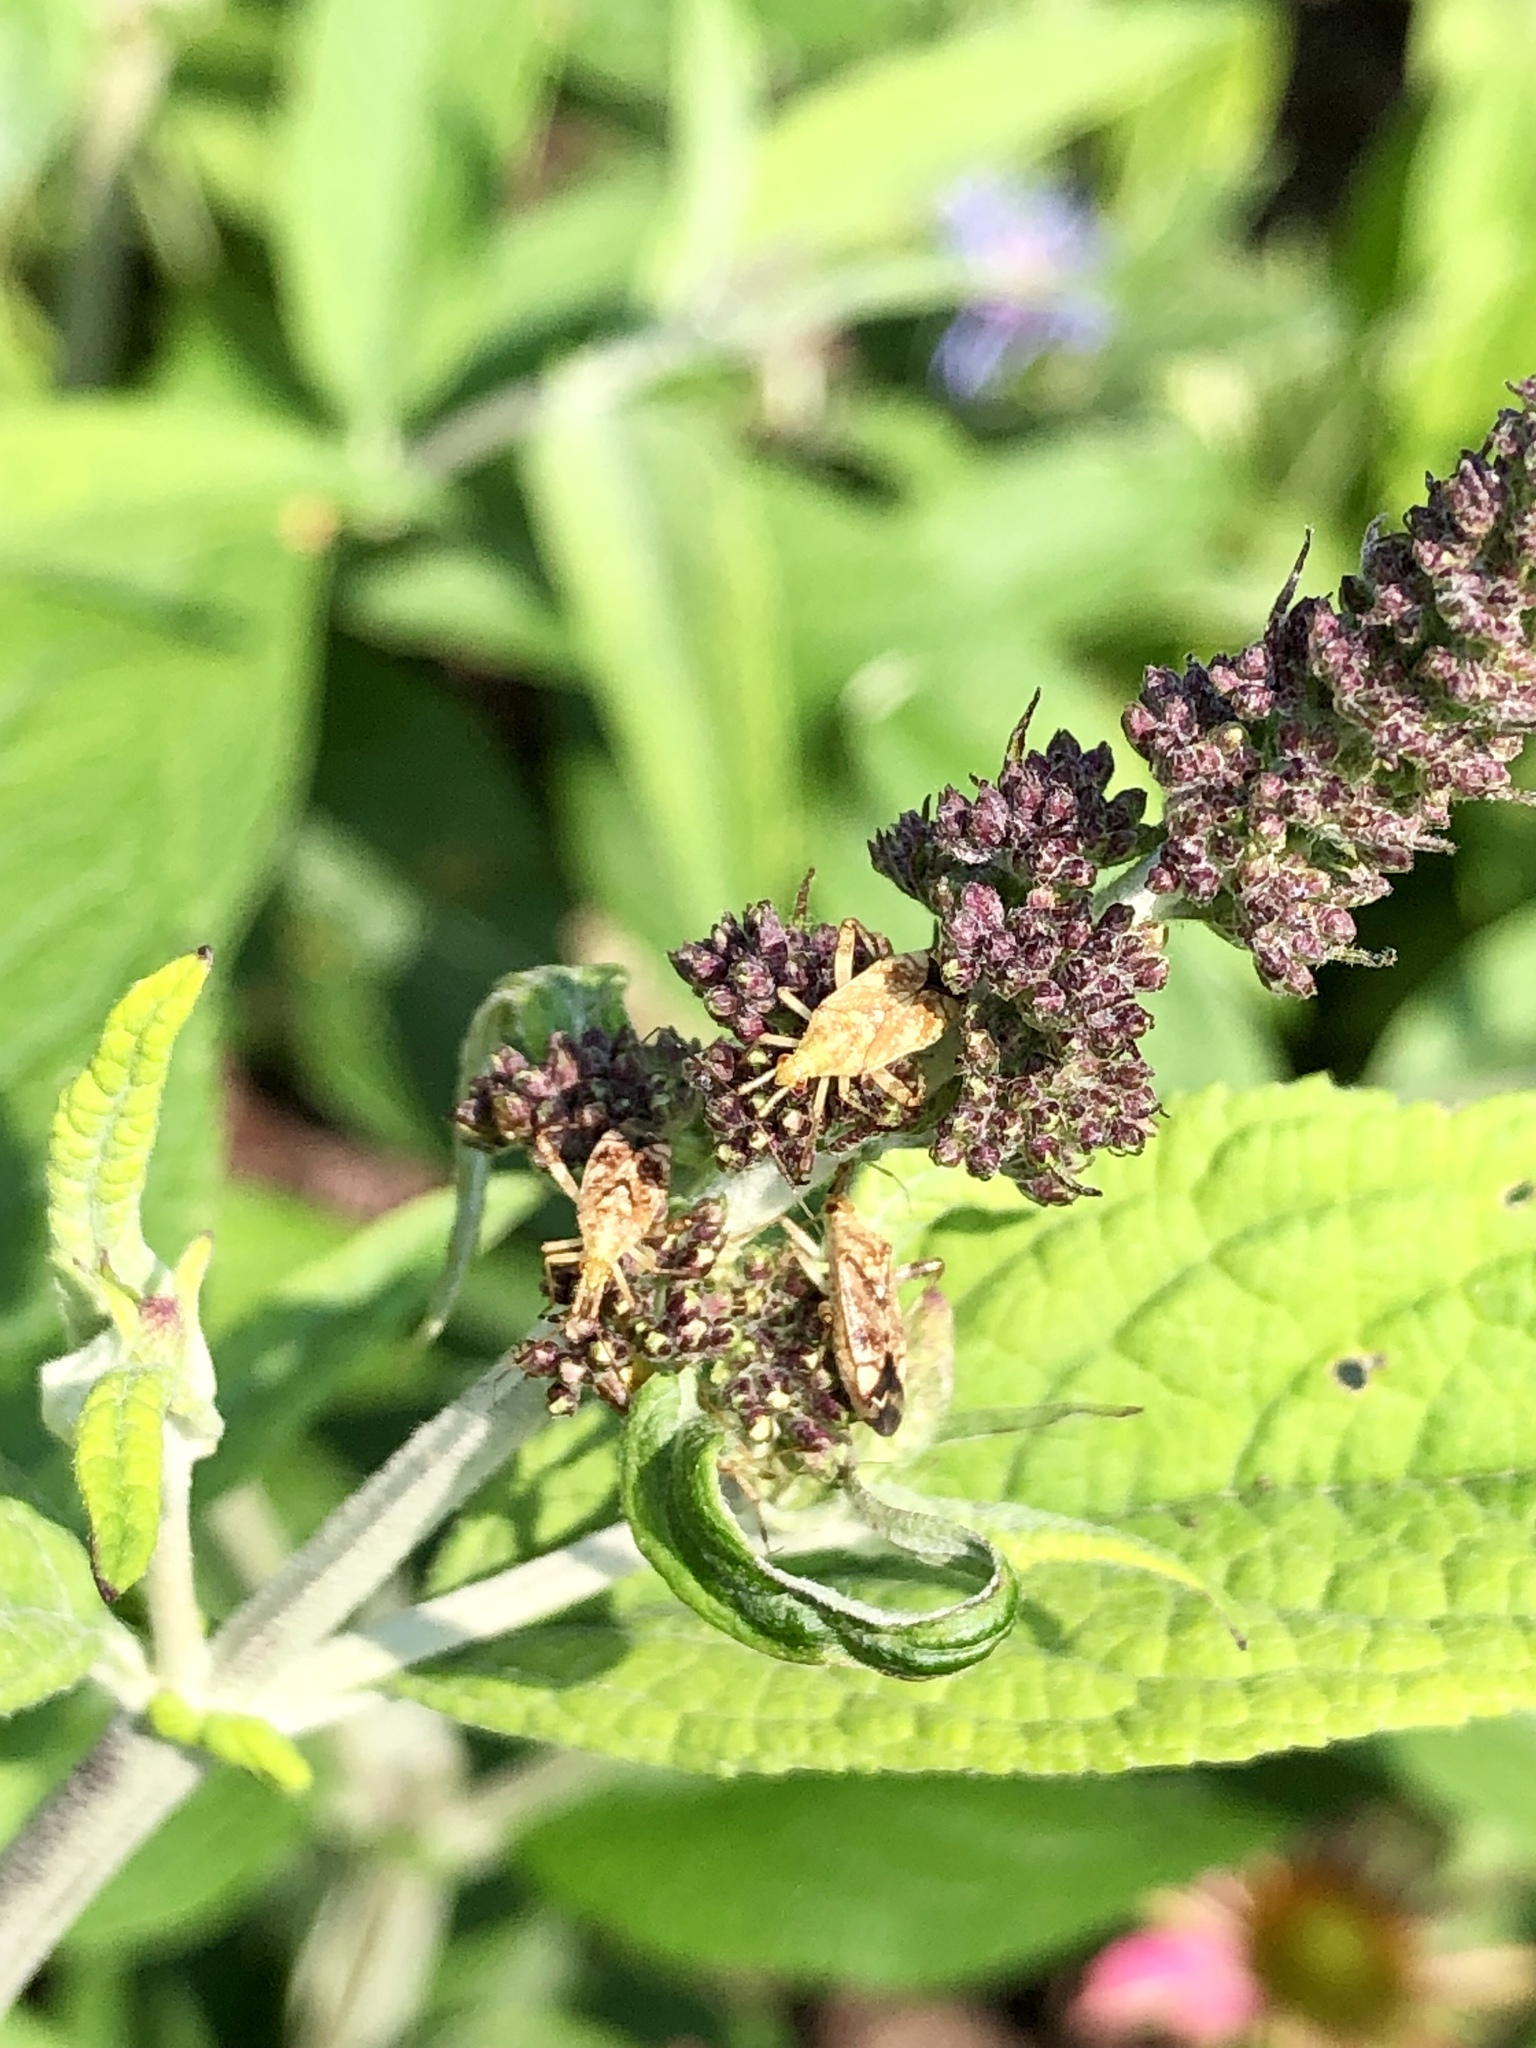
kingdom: Animalia
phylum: Arthropoda
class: Insecta
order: Hemiptera
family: Miridae
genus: Neurocolpus
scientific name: Neurocolpus nubilus
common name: Clouded plant bug
